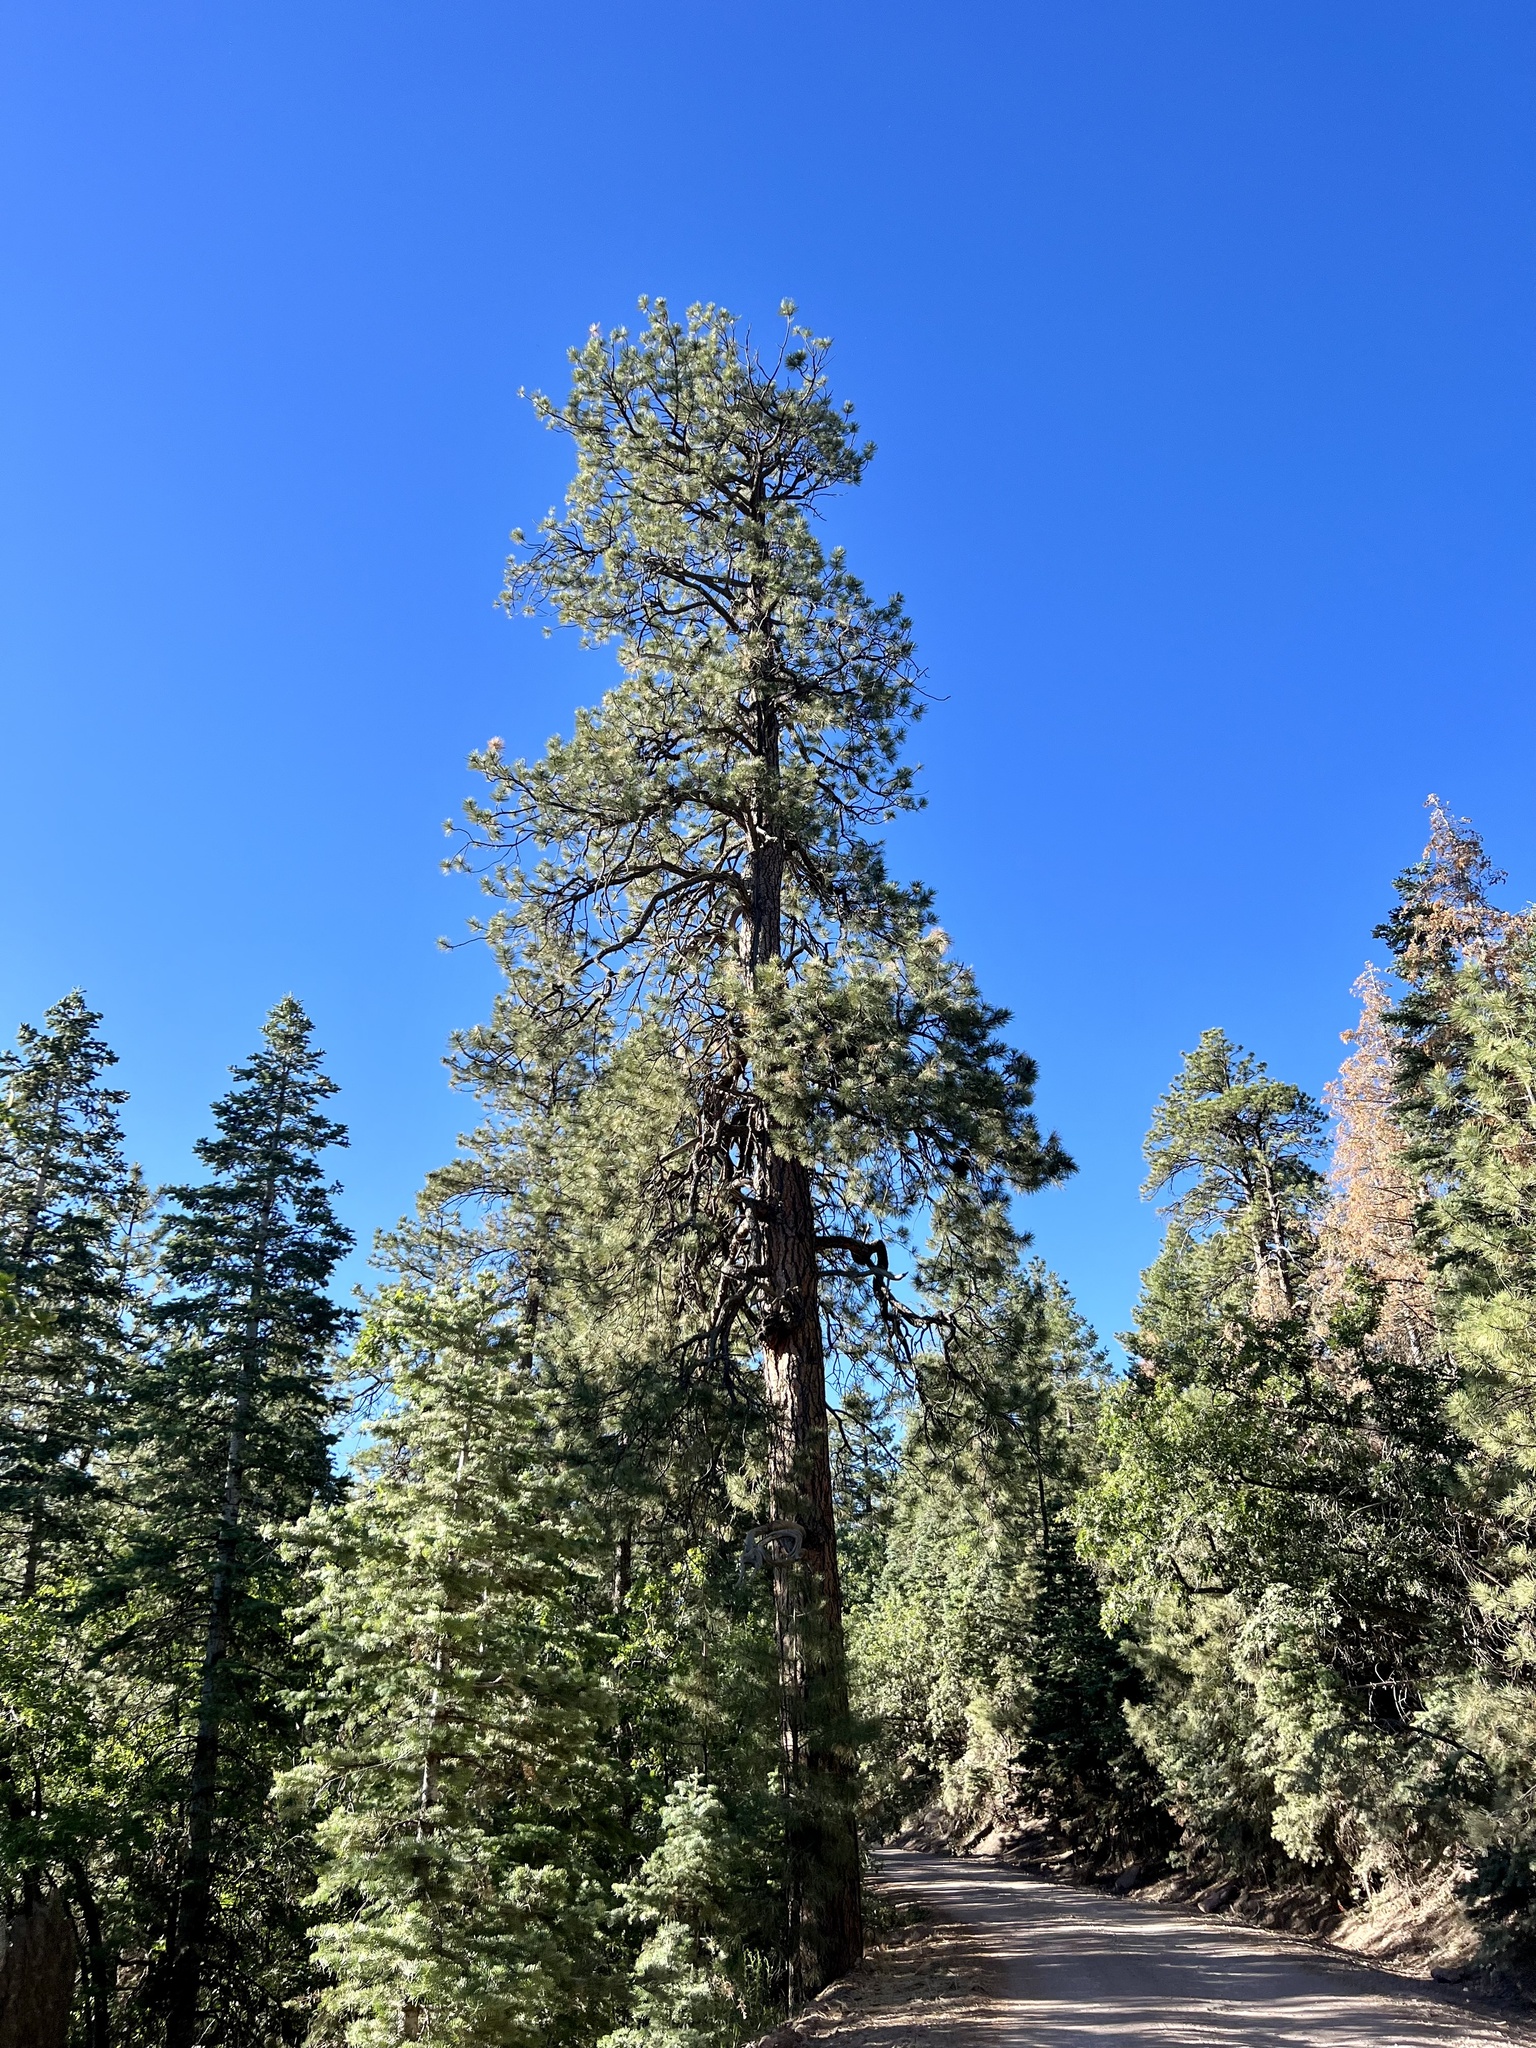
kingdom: Plantae
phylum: Tracheophyta
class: Pinopsida
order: Pinales
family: Pinaceae
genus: Pinus
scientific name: Pinus ponderosa
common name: Western yellow-pine
